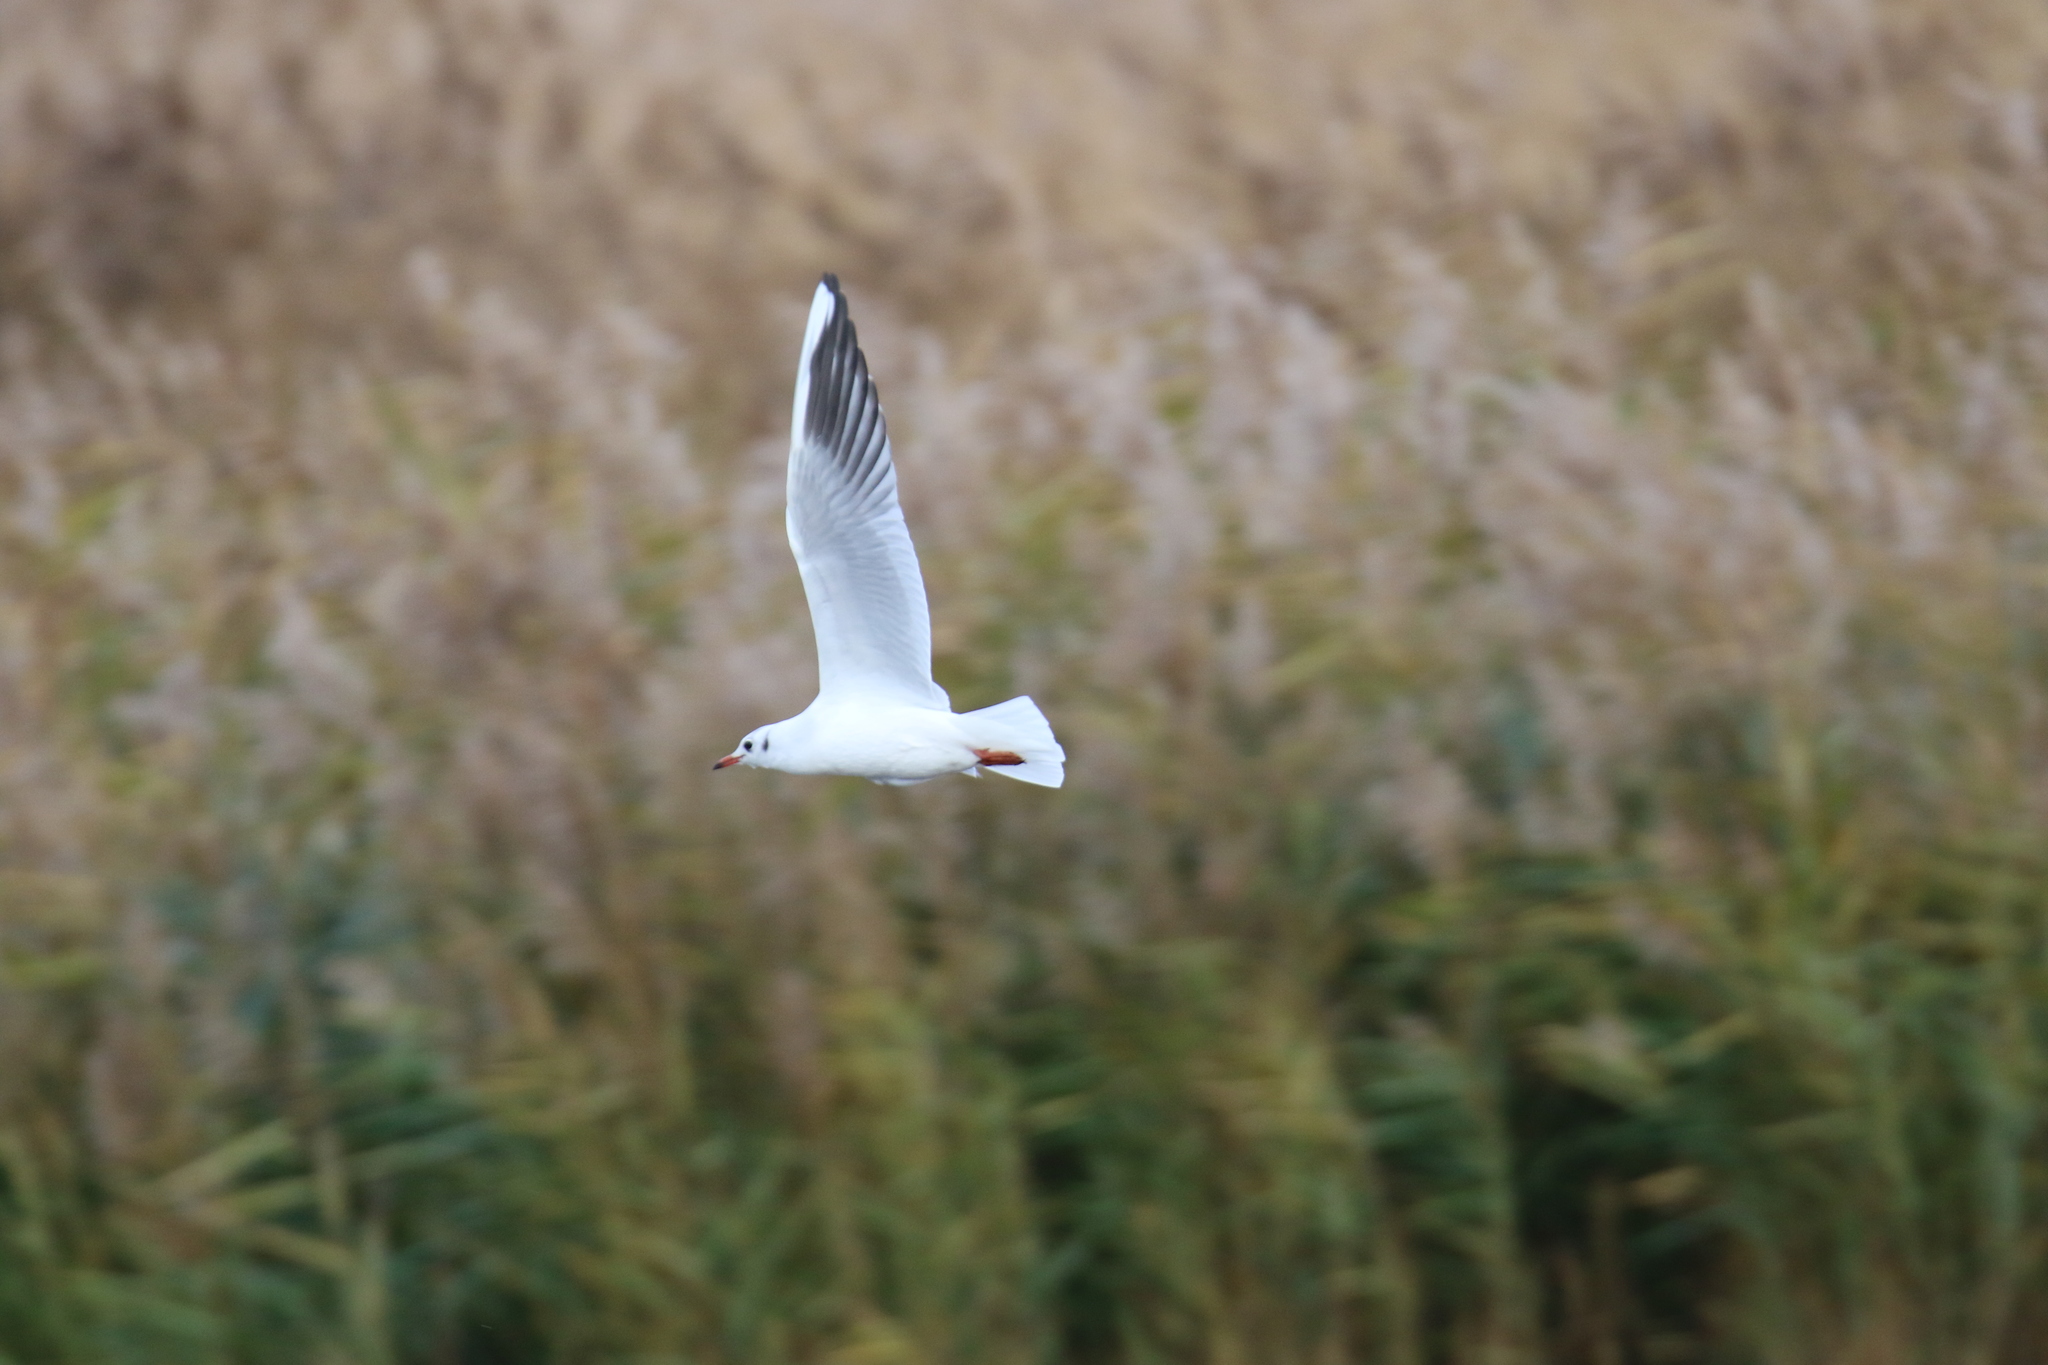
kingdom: Animalia
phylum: Chordata
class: Aves
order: Charadriiformes
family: Laridae
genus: Chroicocephalus
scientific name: Chroicocephalus ridibundus
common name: Black-headed gull
